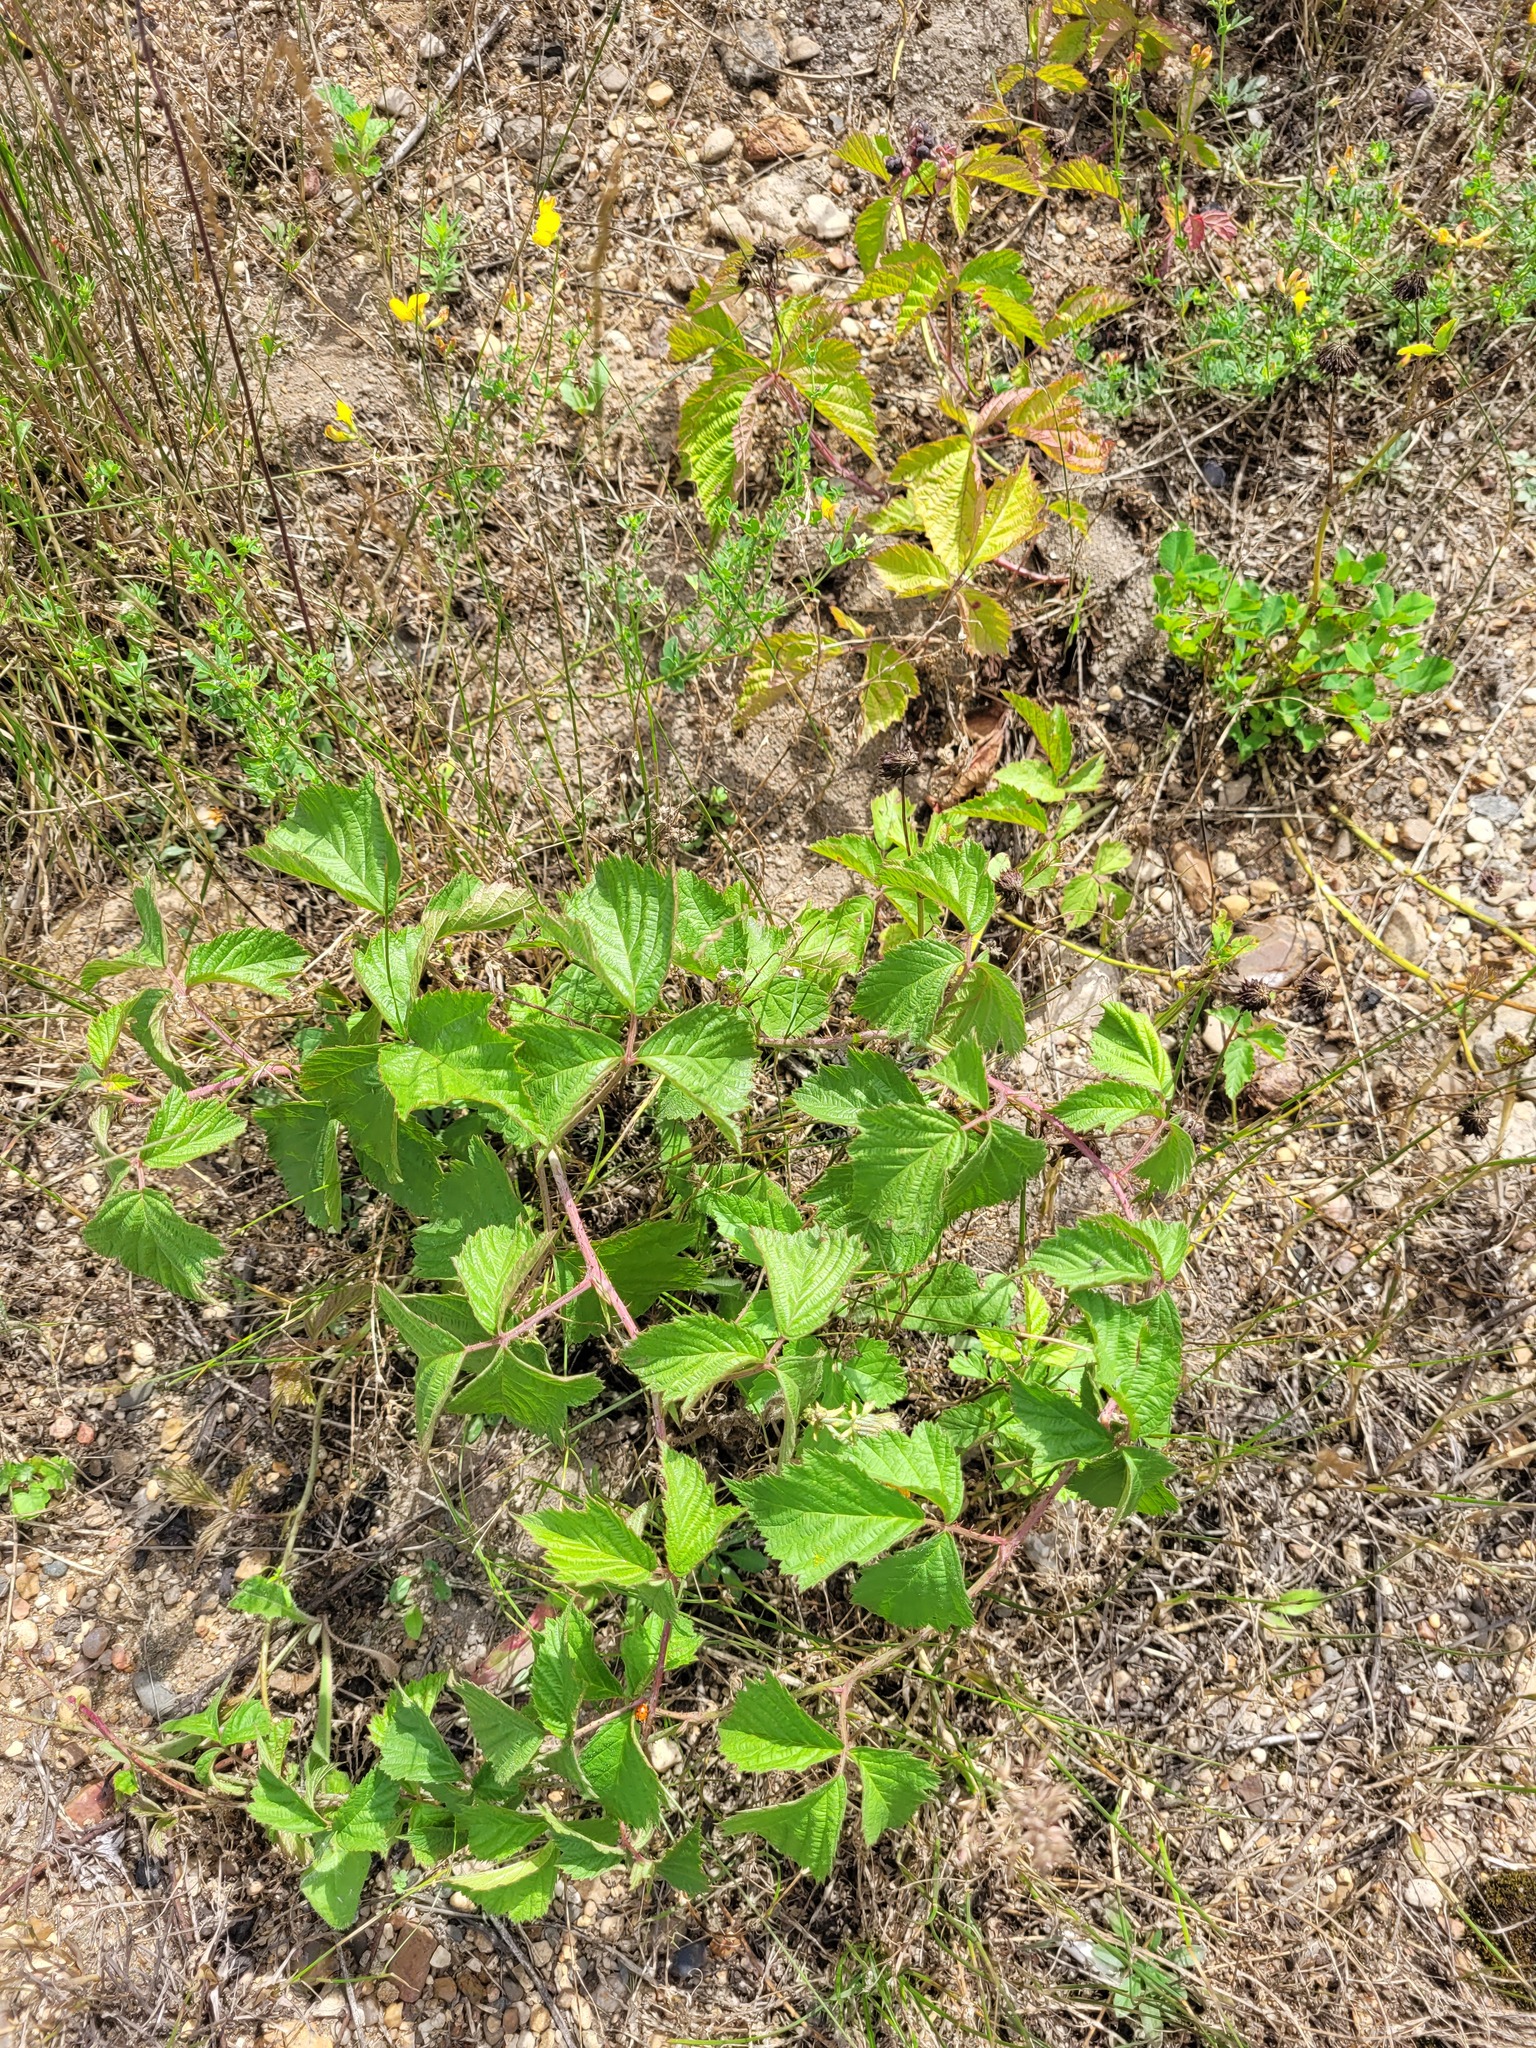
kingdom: Plantae
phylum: Tracheophyta
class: Magnoliopsida
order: Rosales
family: Rosaceae
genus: Rubus
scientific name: Rubus caesius
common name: Dewberry
